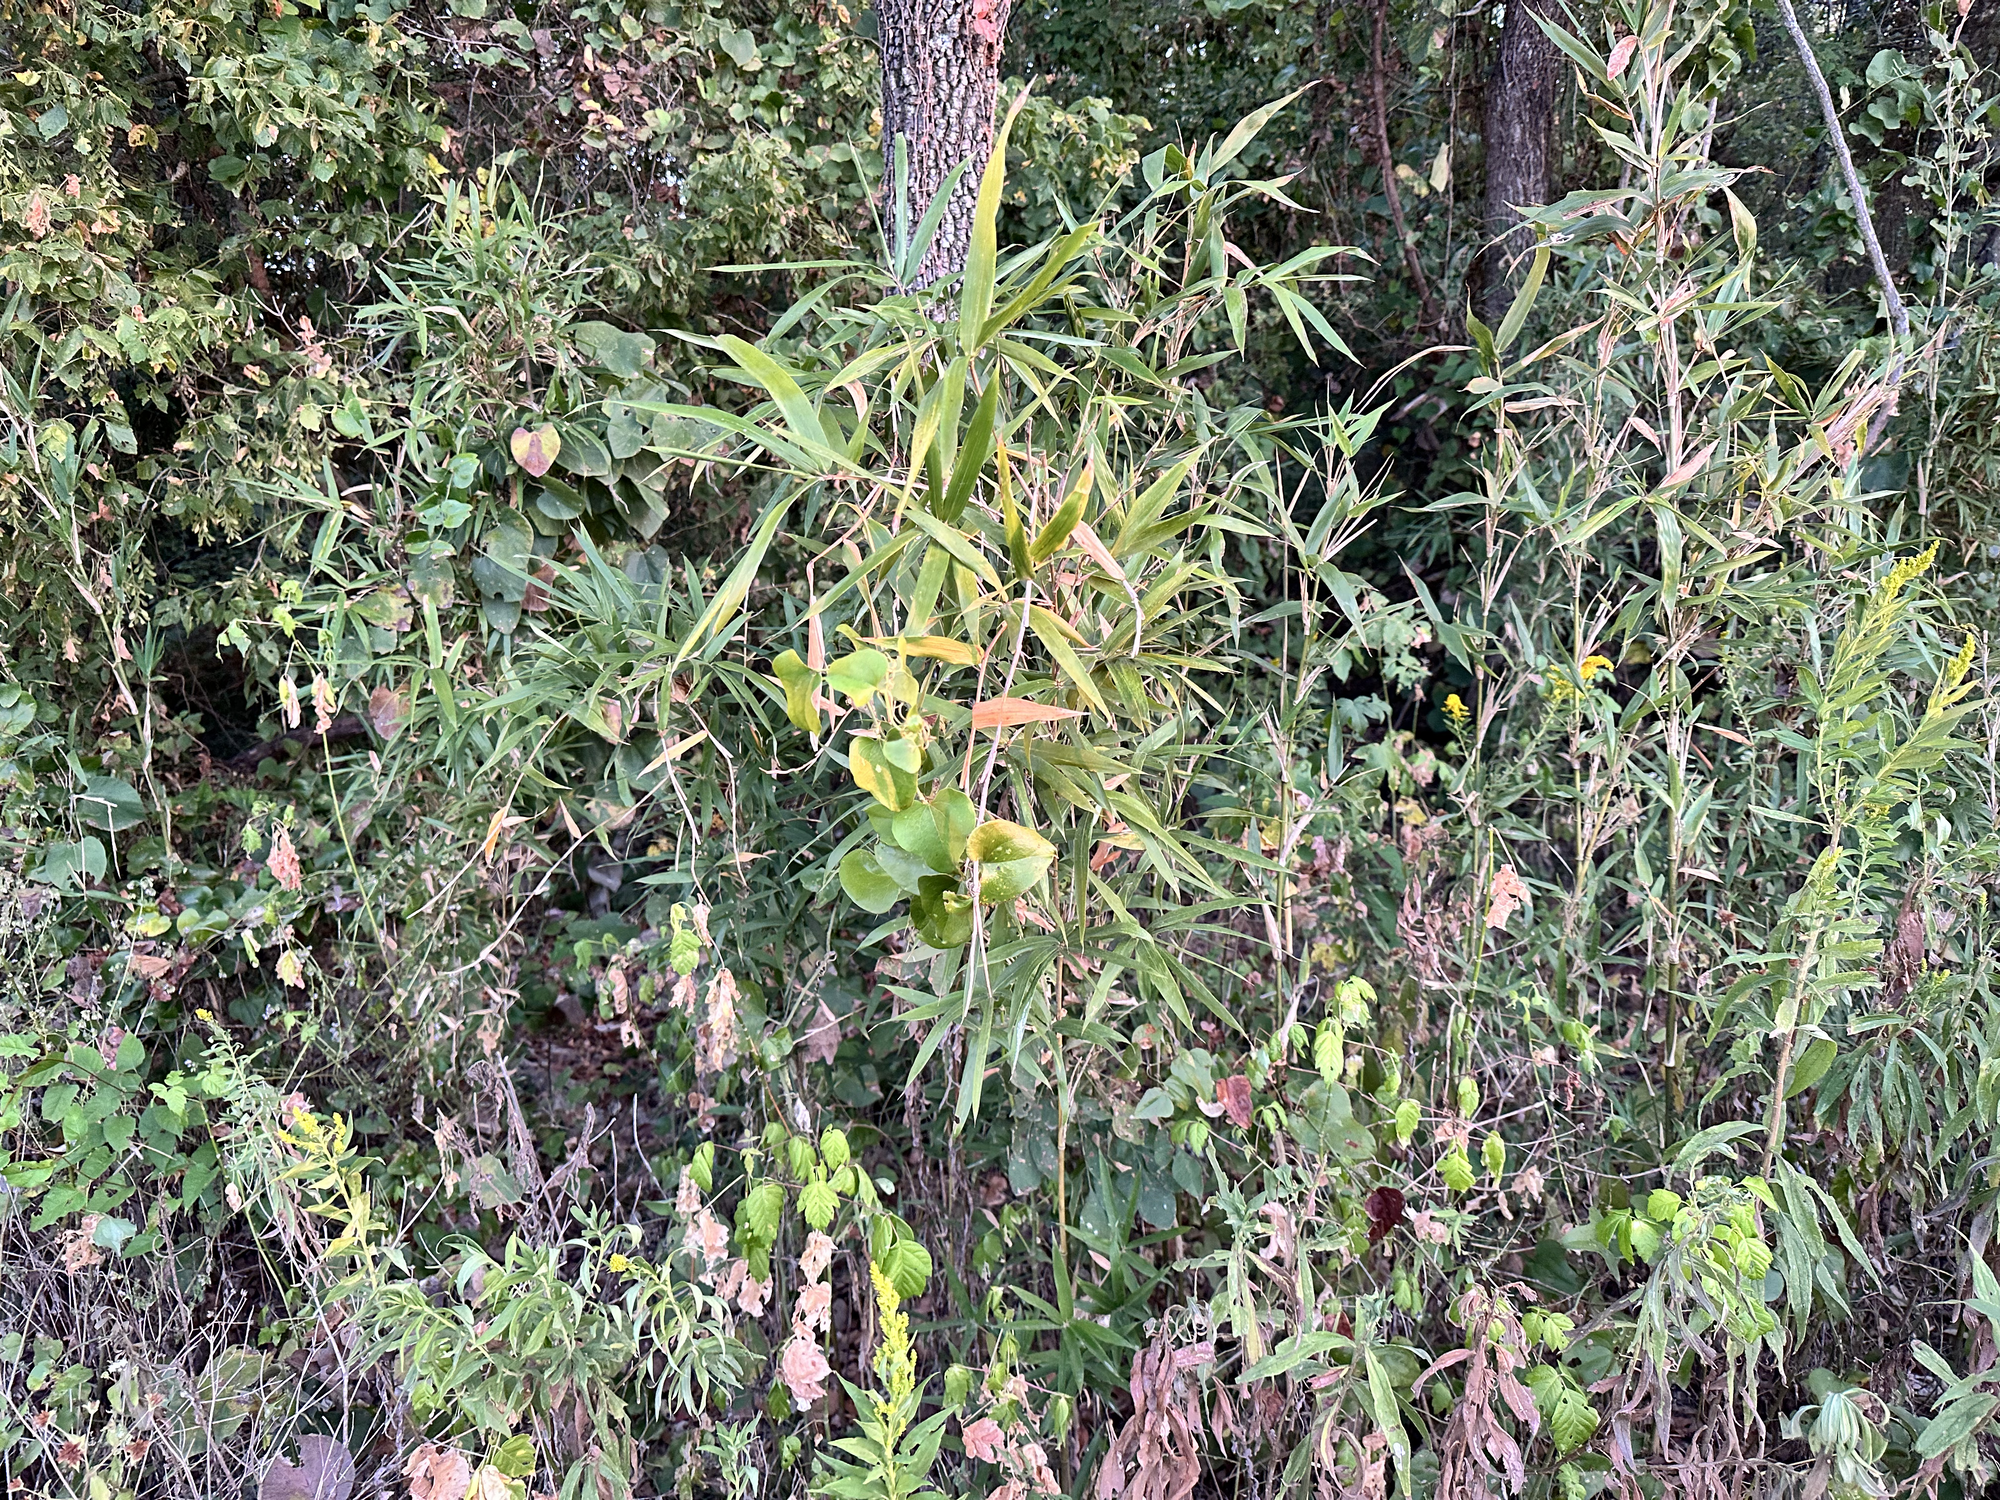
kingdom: Plantae
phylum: Tracheophyta
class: Liliopsida
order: Poales
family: Poaceae
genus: Arundinaria
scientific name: Arundinaria gigantea
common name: Giant cane
